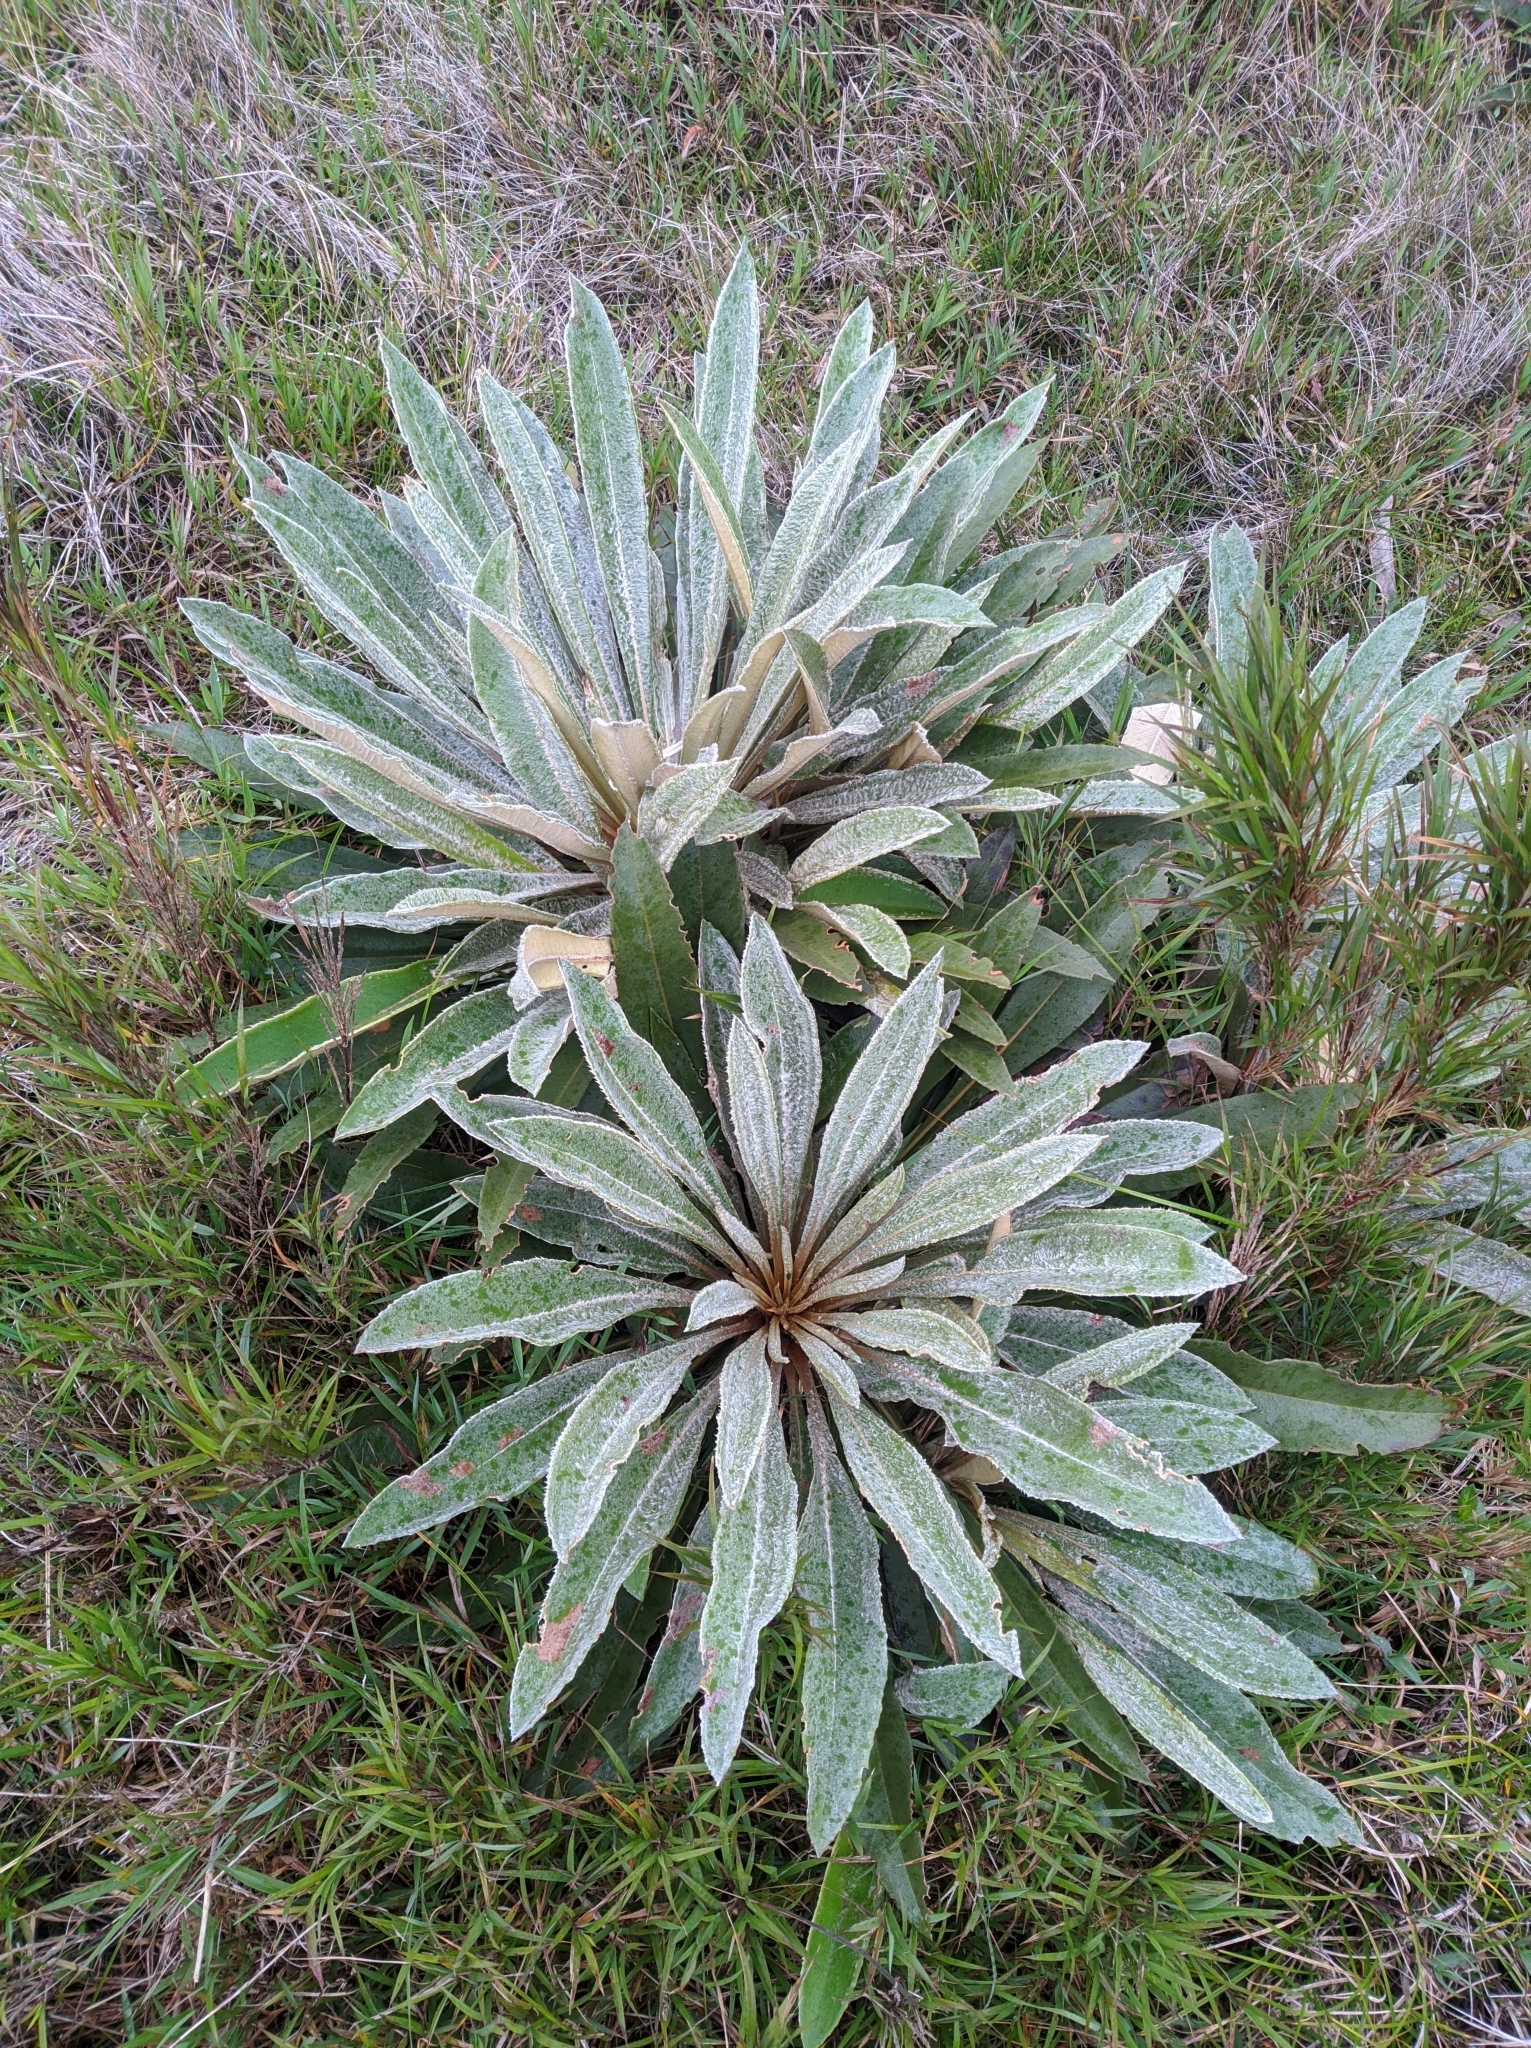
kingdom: Plantae
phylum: Tracheophyta
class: Magnoliopsida
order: Asterales
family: Asteraceae
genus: Espeletia
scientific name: Espeletia bracteosa
